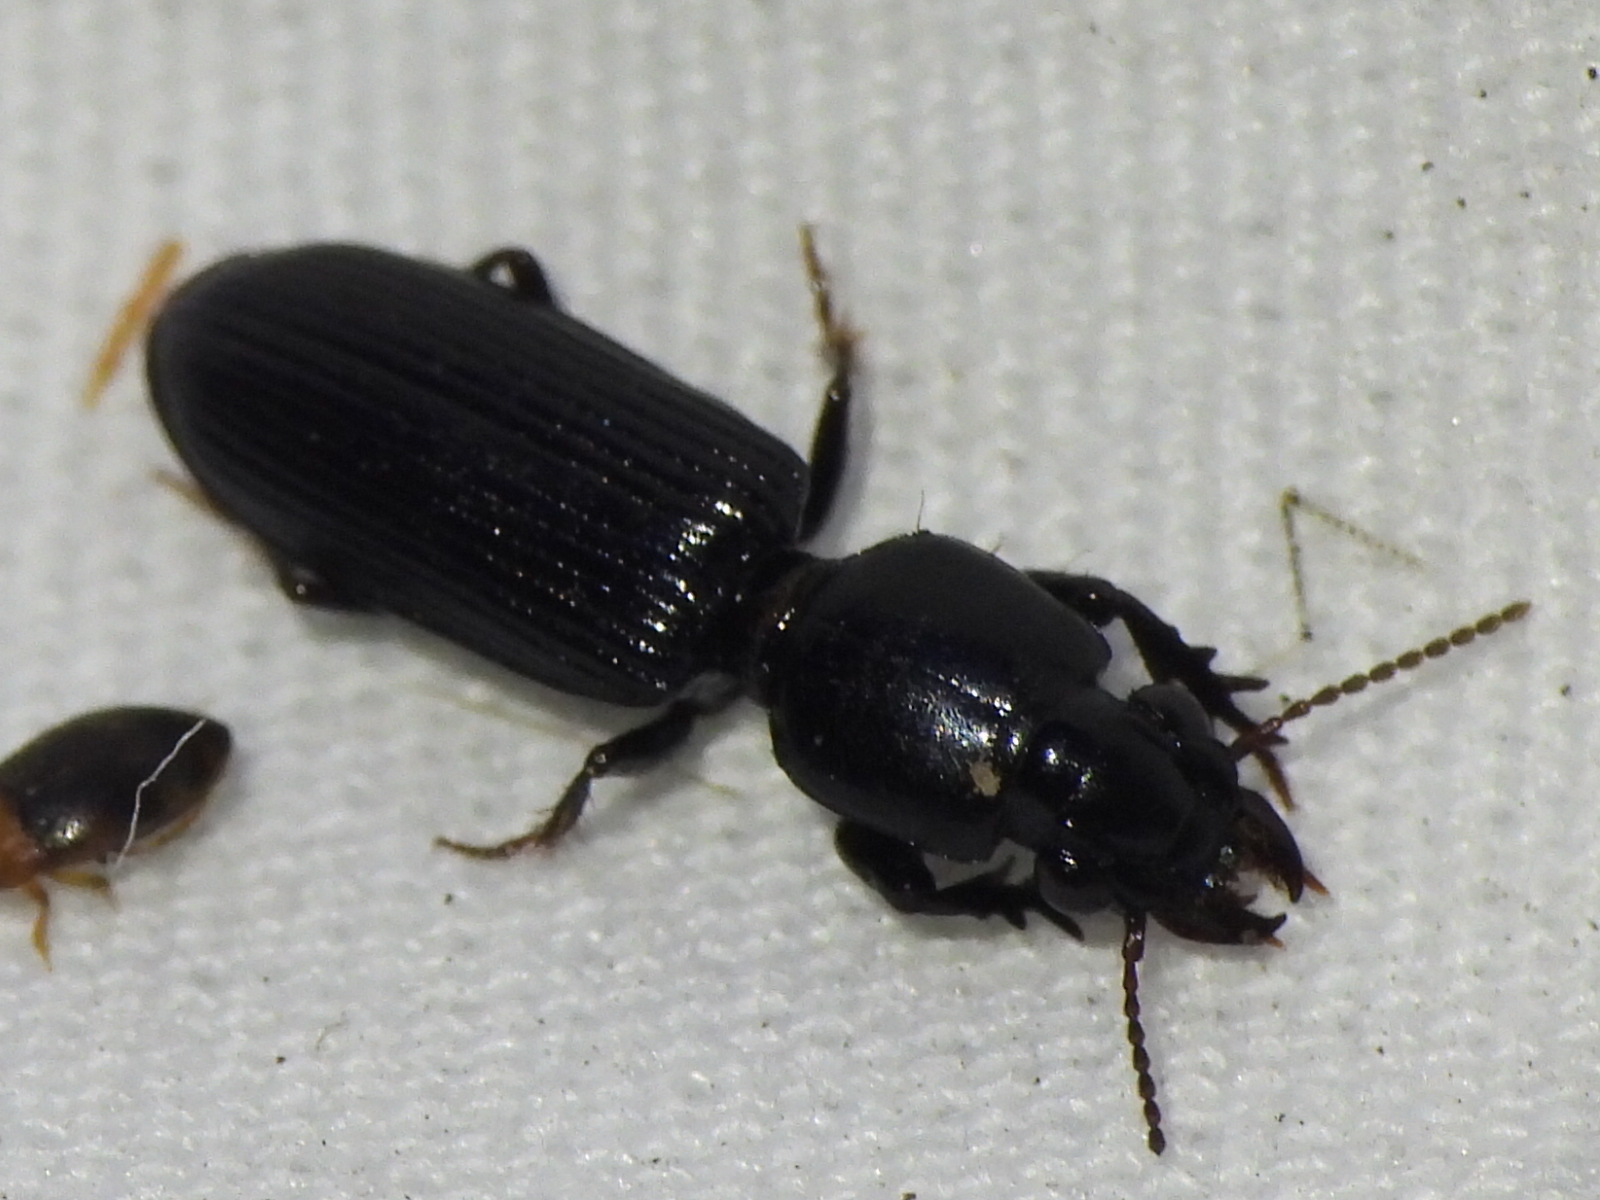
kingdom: Animalia
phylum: Arthropoda
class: Insecta
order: Coleoptera
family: Carabidae
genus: Semiclivina
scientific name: Semiclivina dentipes
